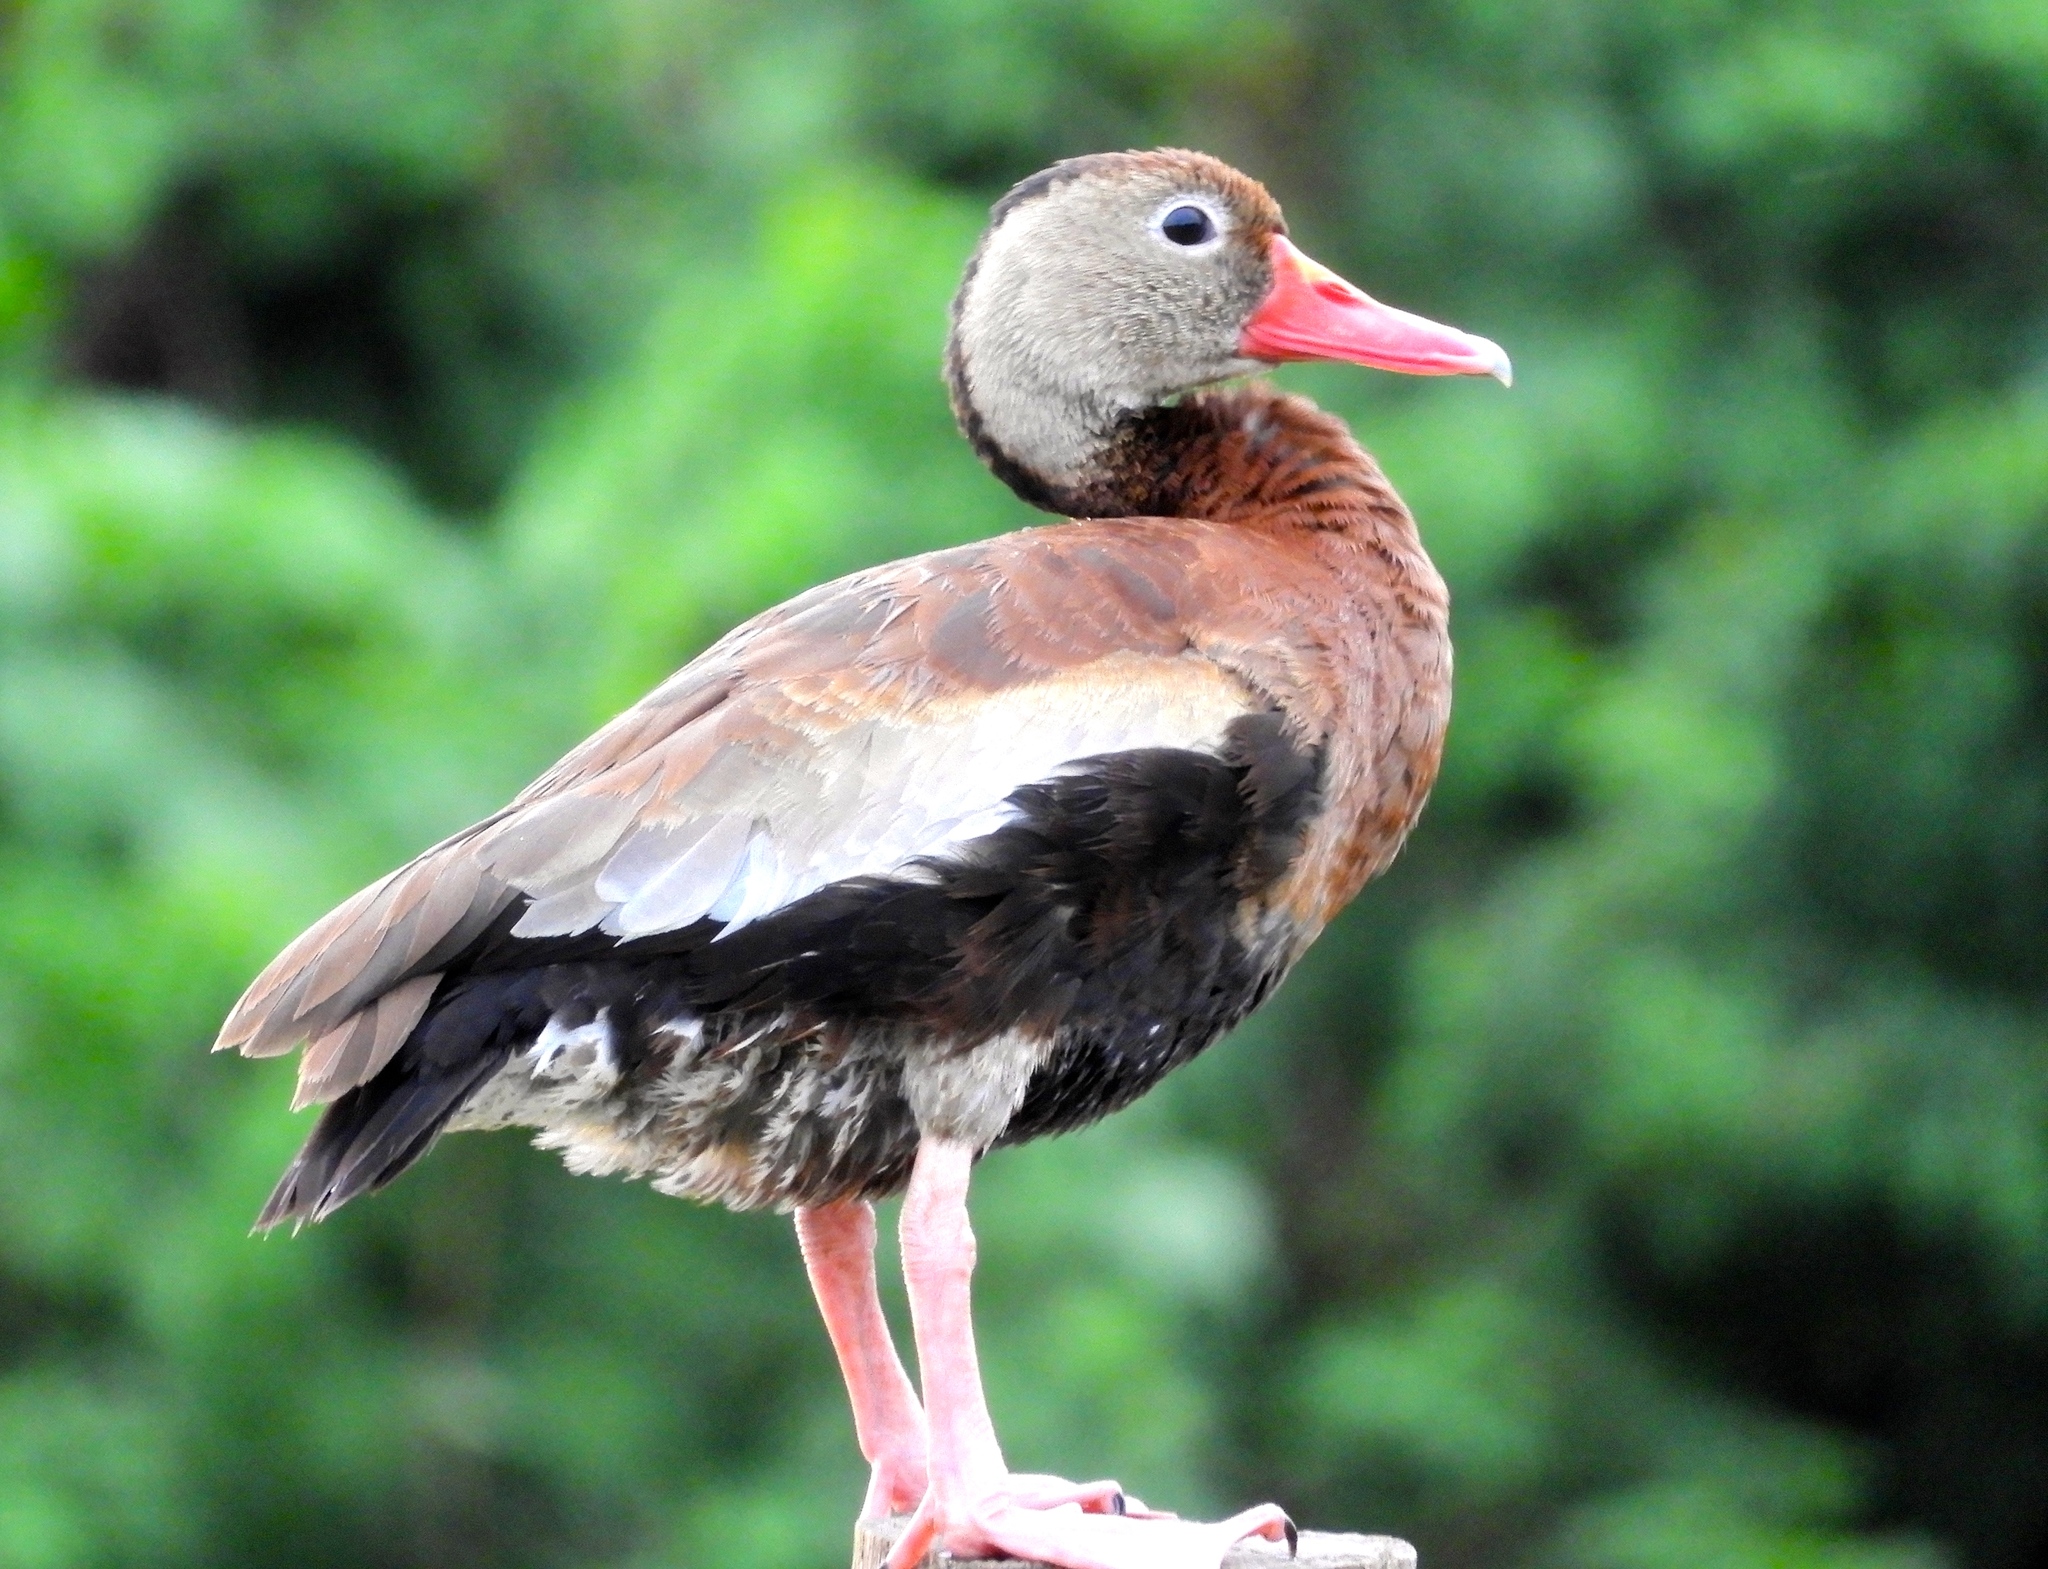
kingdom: Animalia
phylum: Chordata
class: Aves
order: Anseriformes
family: Anatidae
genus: Dendrocygna
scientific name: Dendrocygna autumnalis
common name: Black-bellied whistling duck
